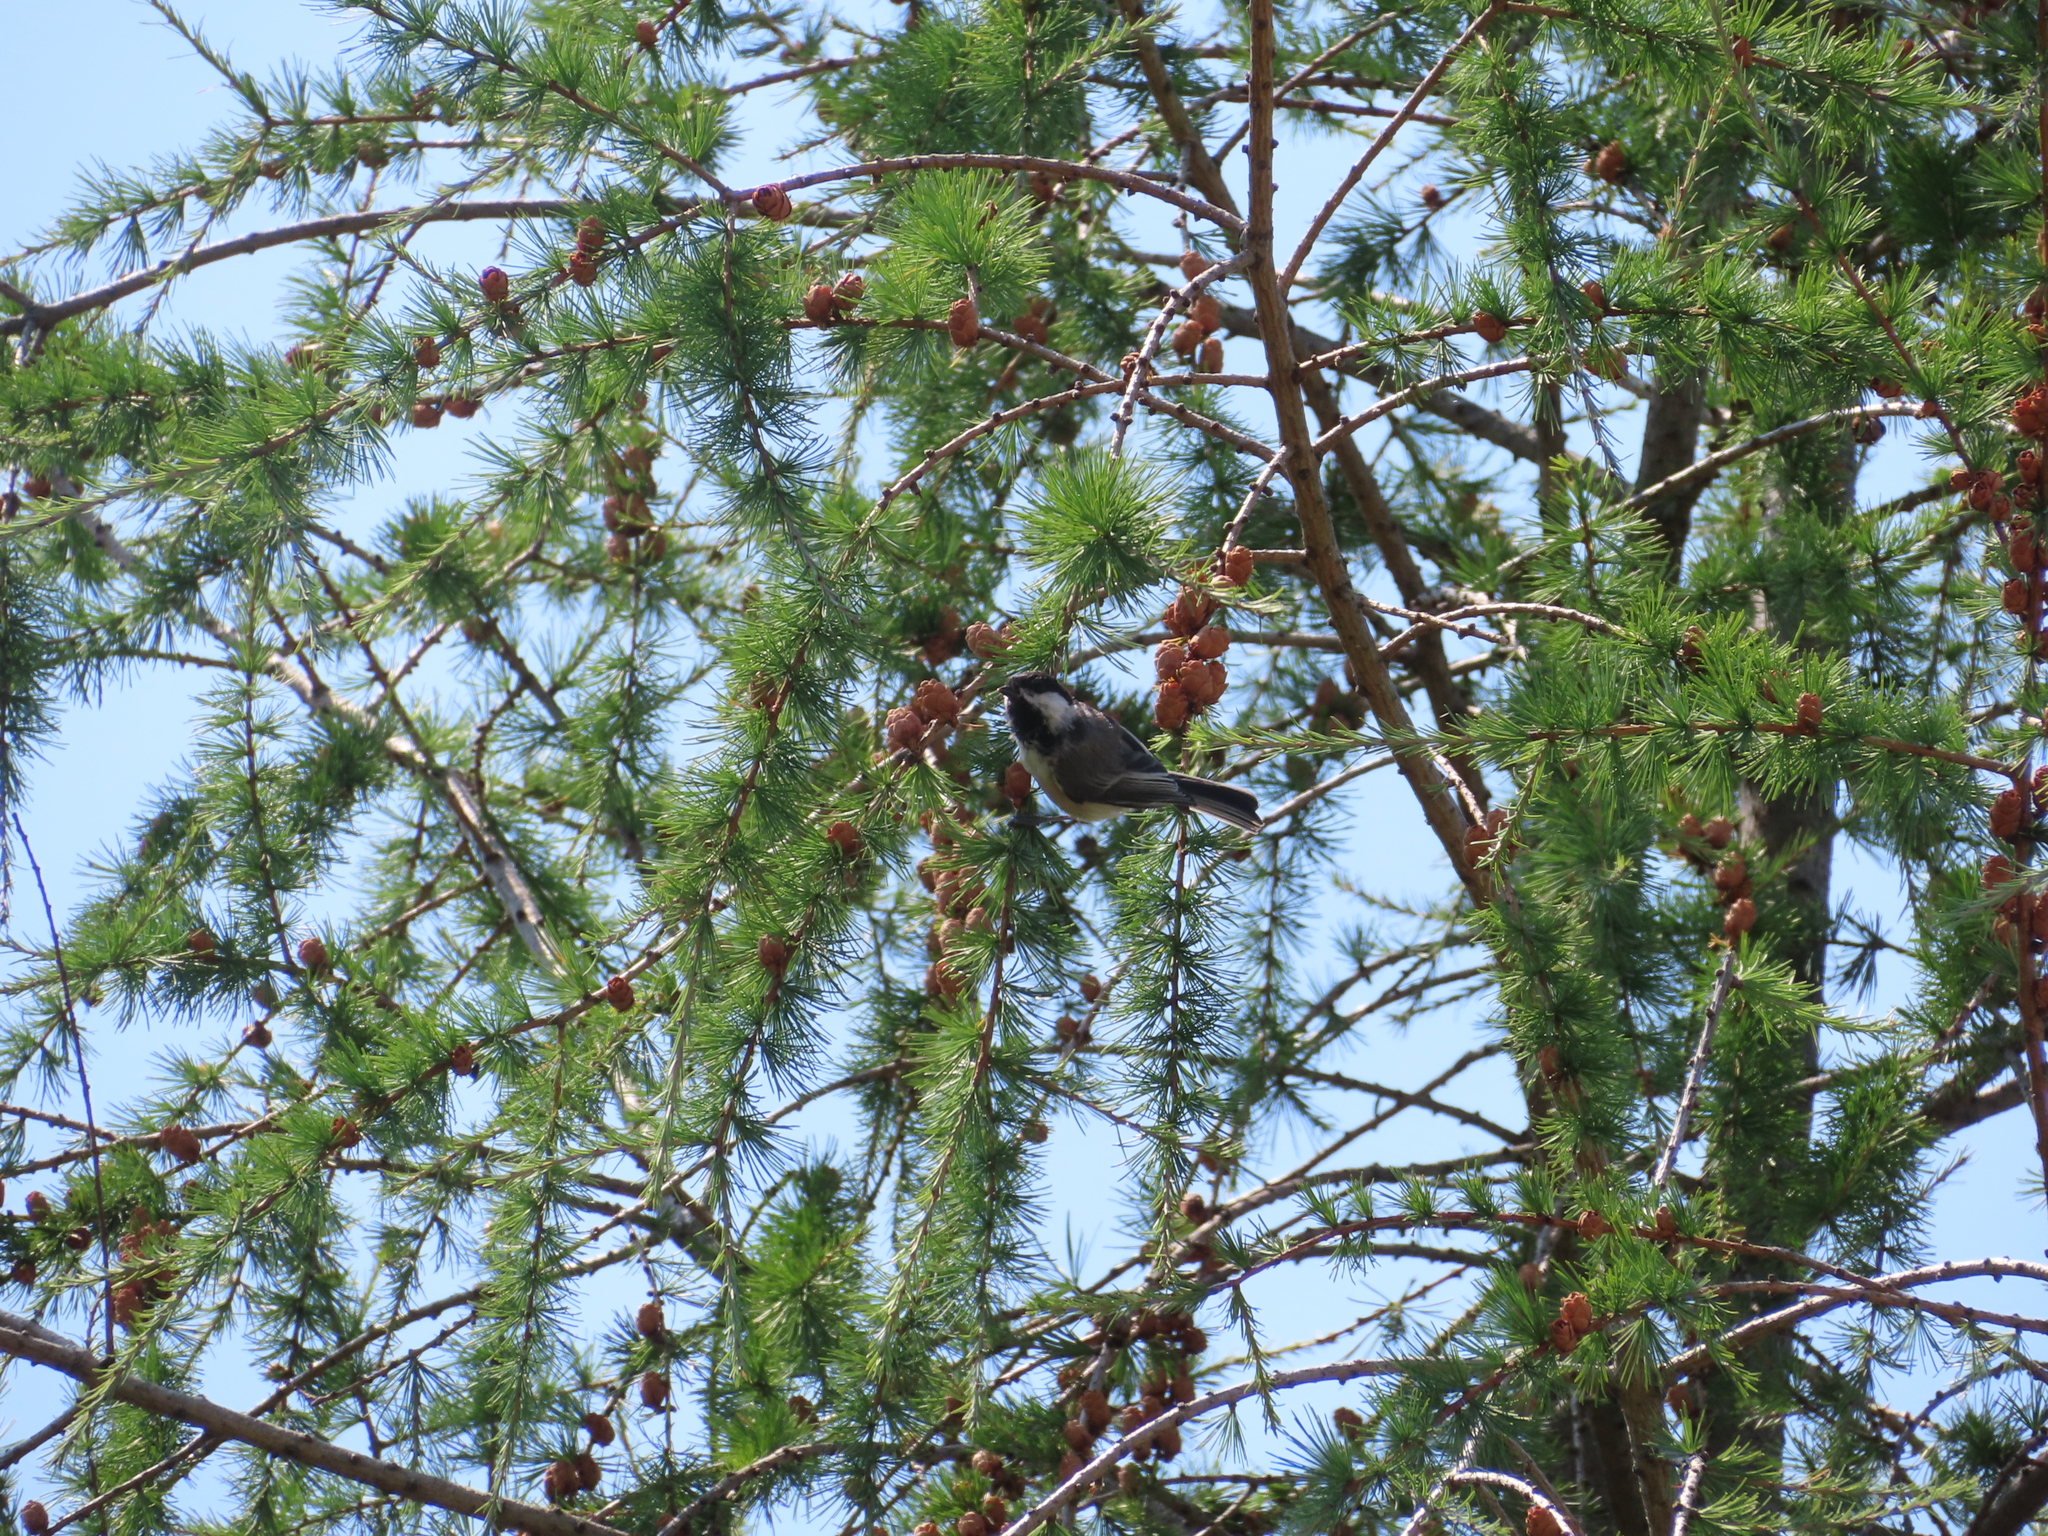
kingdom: Animalia
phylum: Chordata
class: Aves
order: Passeriformes
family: Paridae
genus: Poecile
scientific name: Poecile atricapillus
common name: Black-capped chickadee
